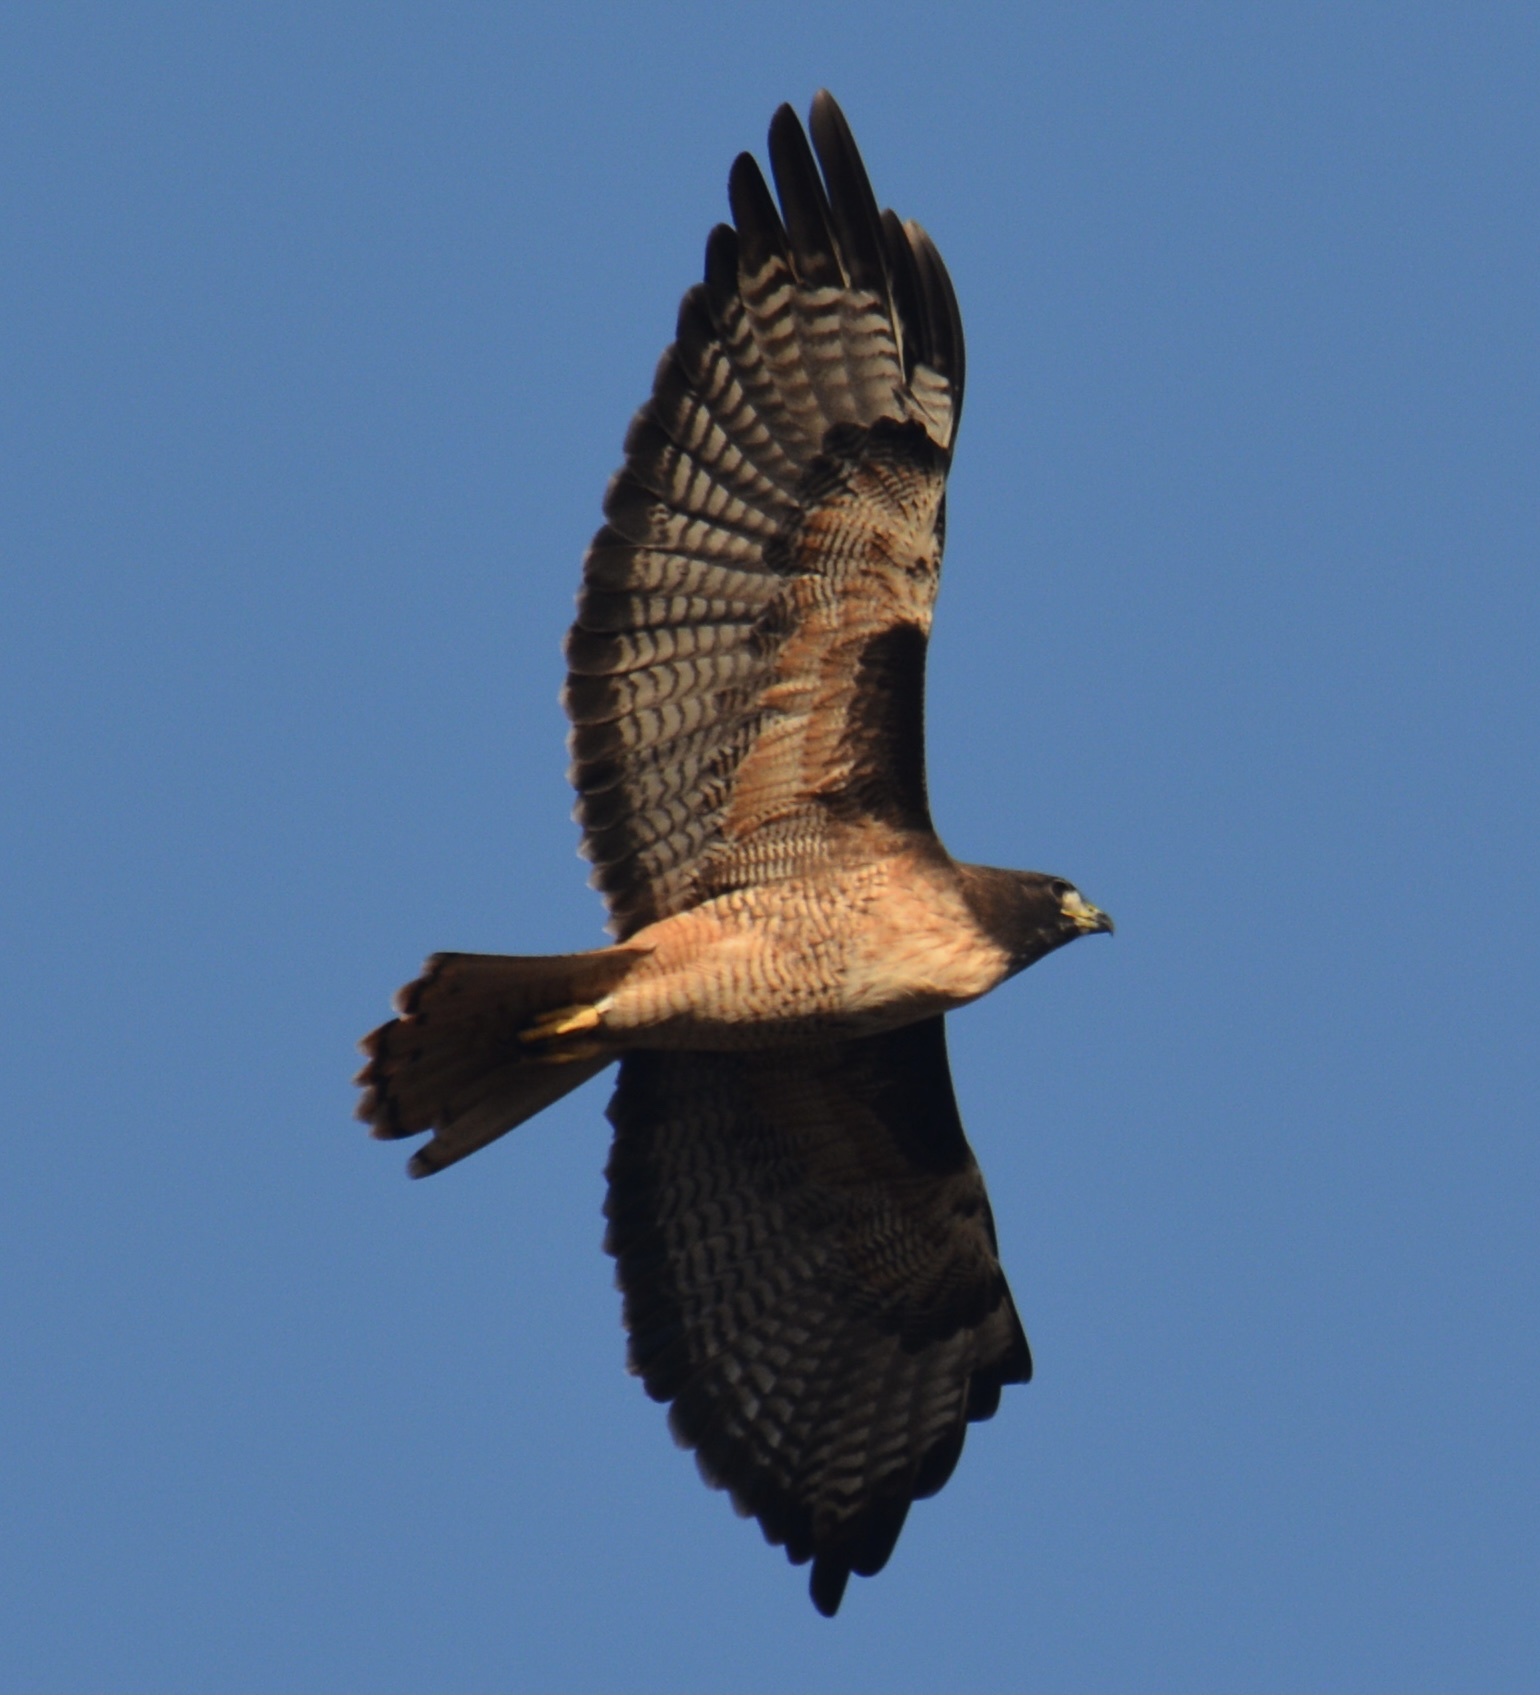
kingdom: Animalia
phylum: Chordata
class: Aves
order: Accipitriformes
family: Accipitridae
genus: Buteo
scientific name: Buteo jamaicensis
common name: Red-tailed hawk
